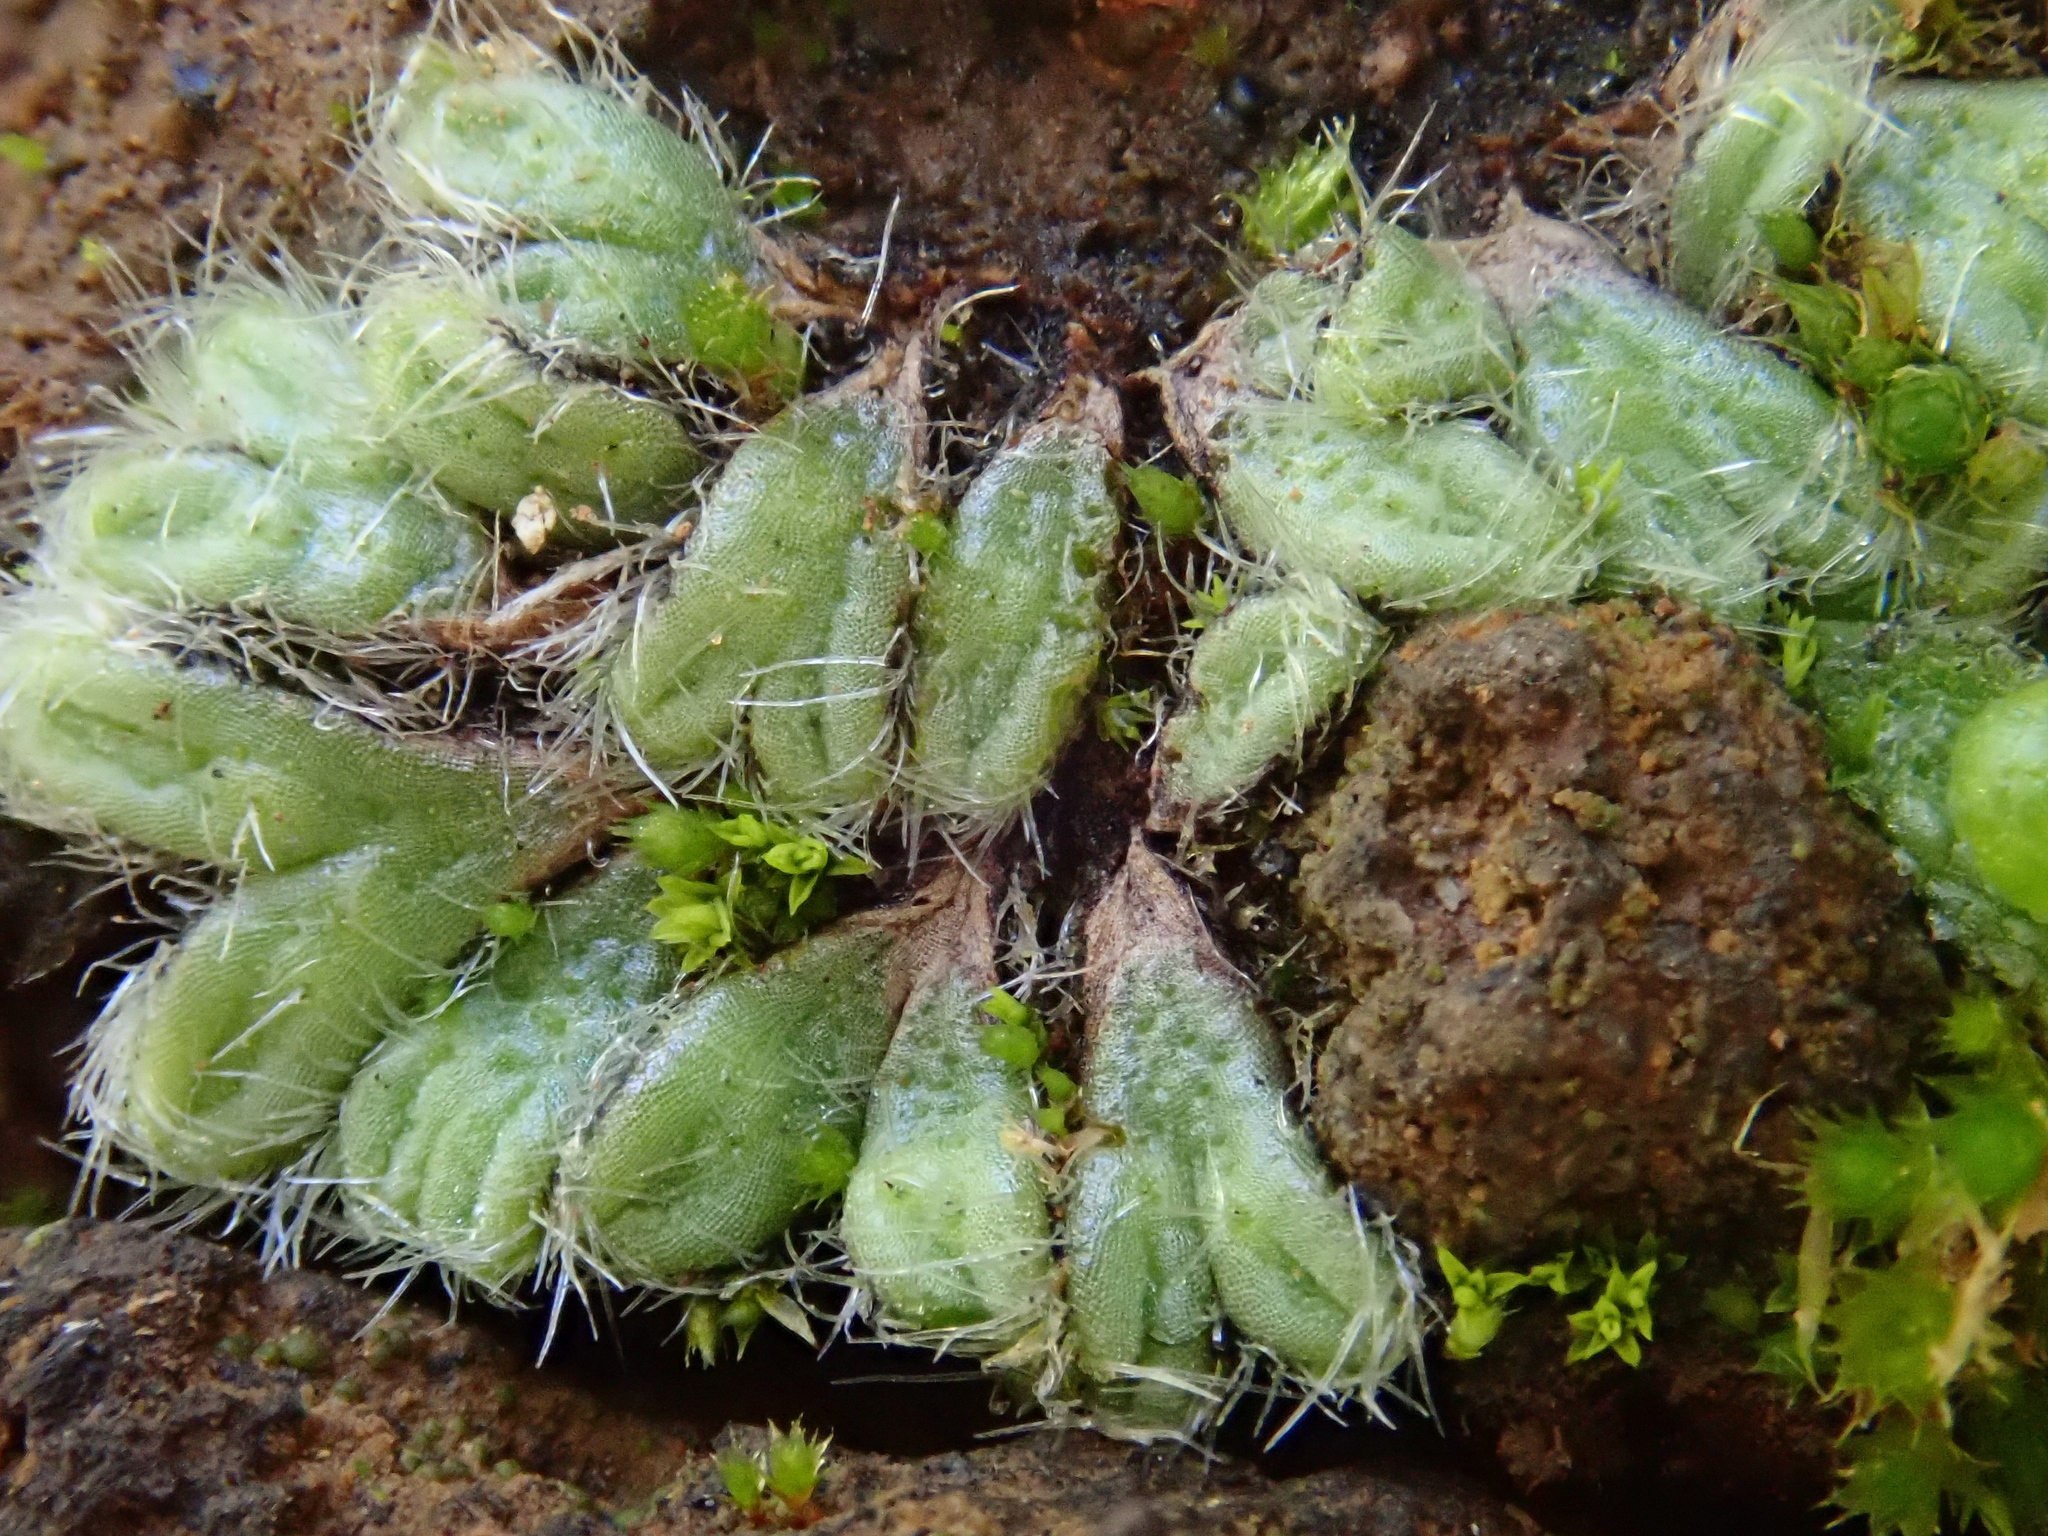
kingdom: Plantae
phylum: Marchantiophyta
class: Marchantiopsida
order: Marchantiales
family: Ricciaceae
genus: Riccia
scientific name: Riccia ciliata
